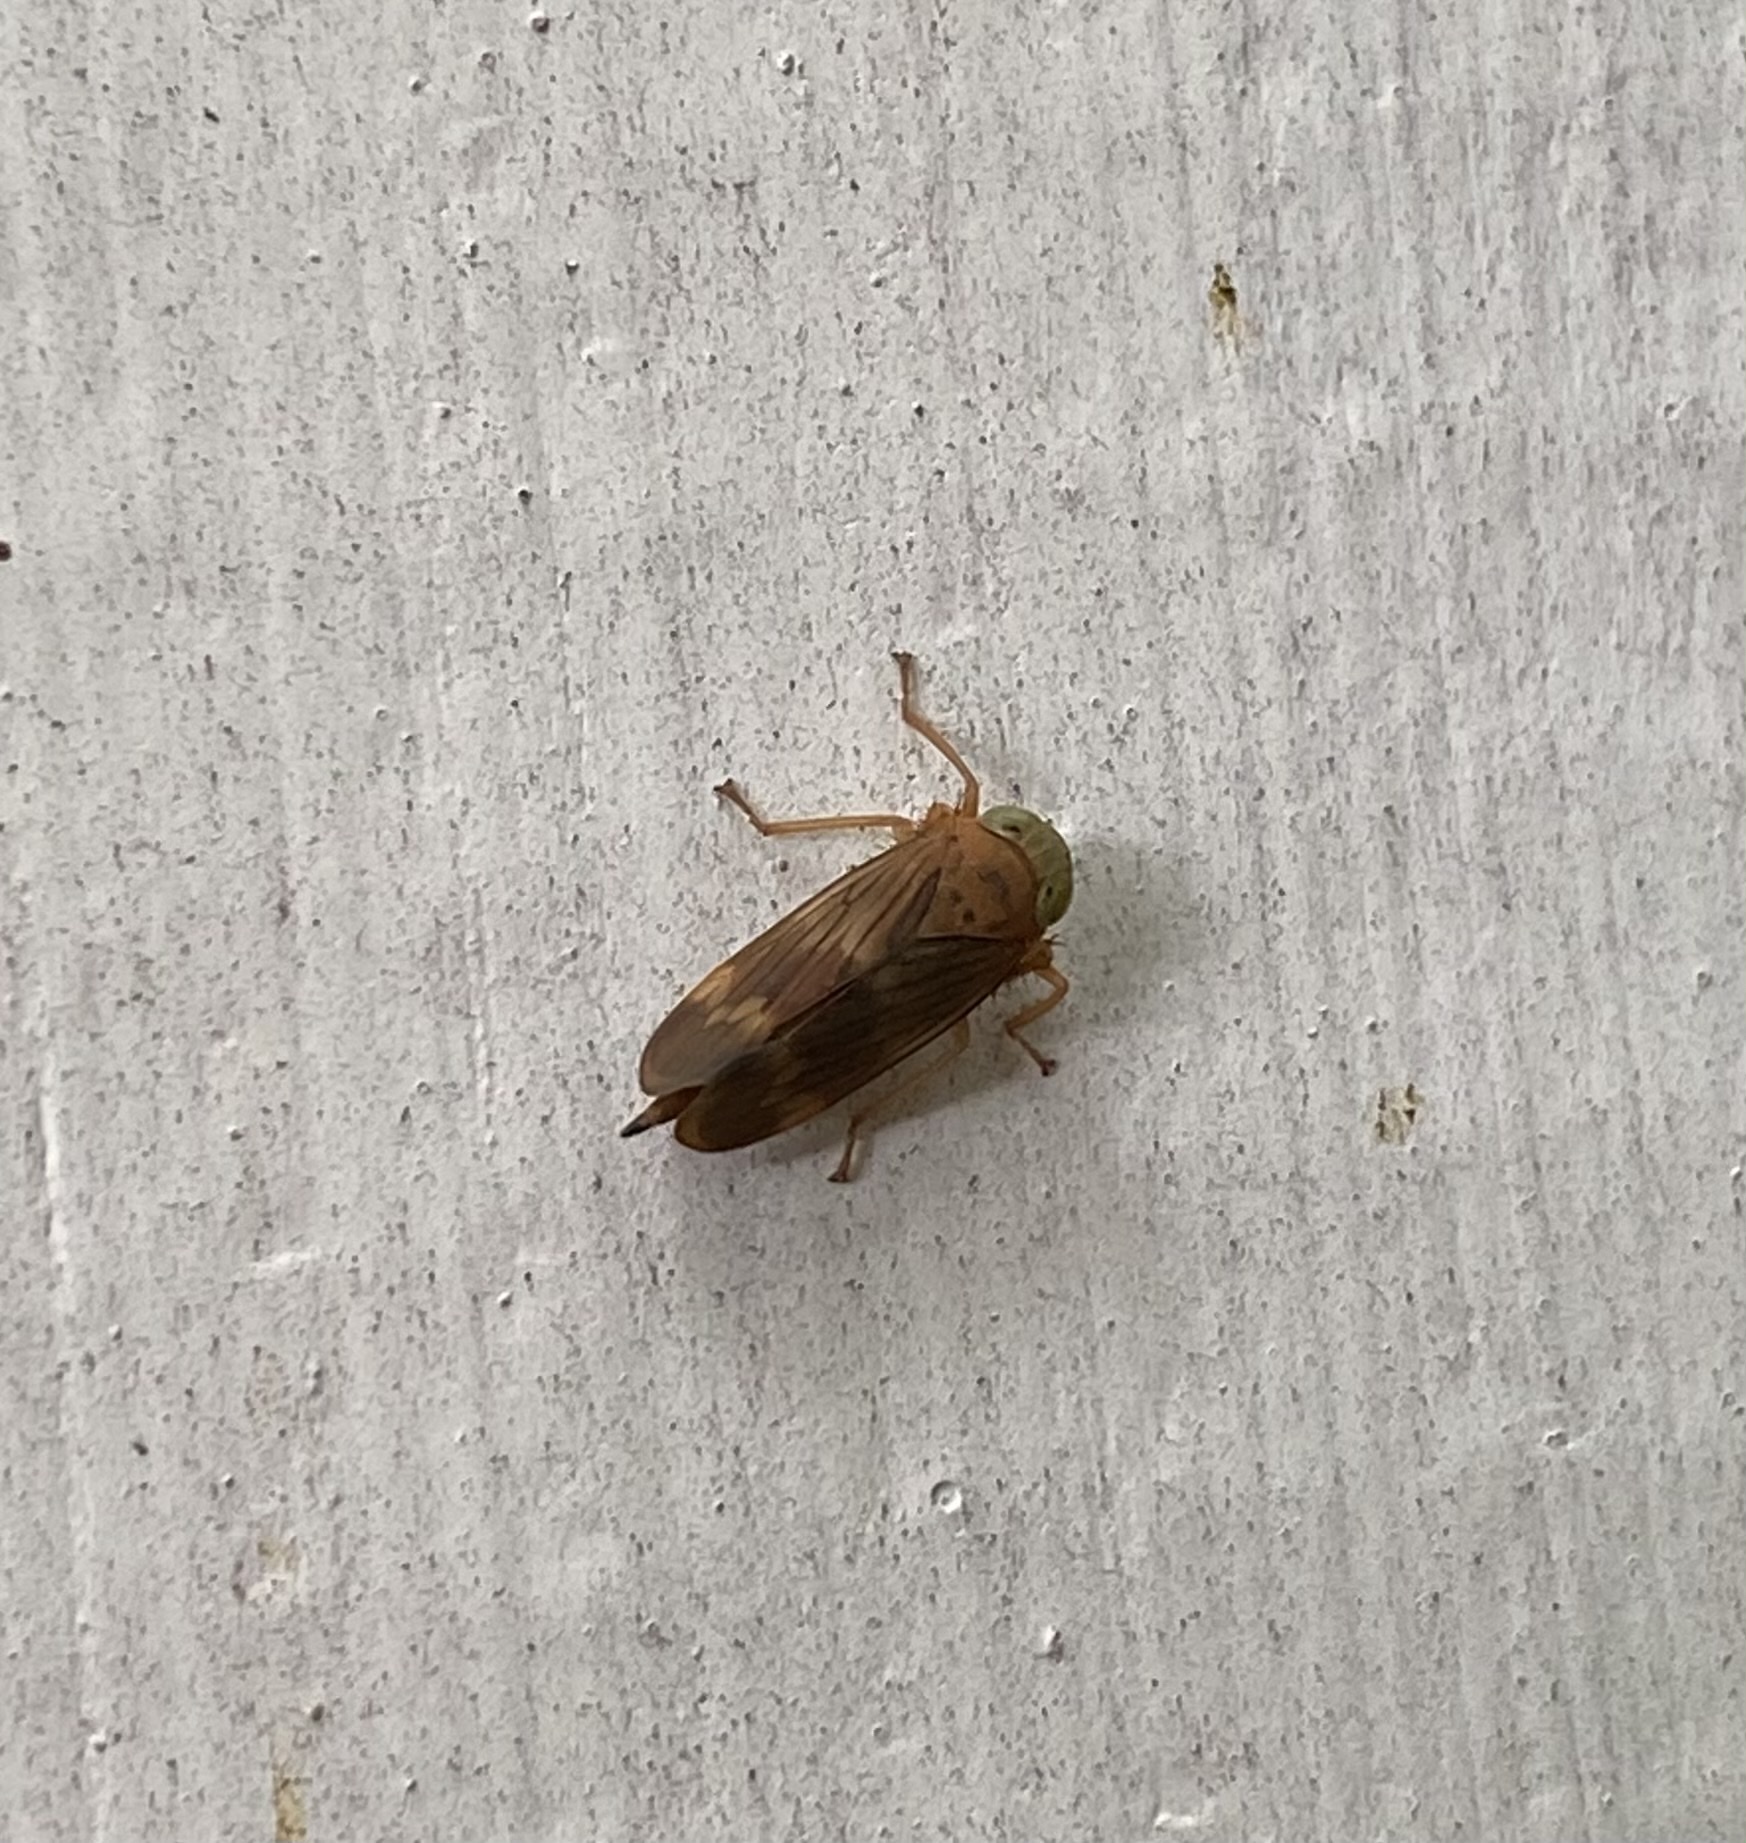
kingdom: Animalia
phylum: Arthropoda
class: Insecta
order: Hemiptera
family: Cicadellidae
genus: Jikradia
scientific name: Jikradia olitoria
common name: Coppery leafhopper
